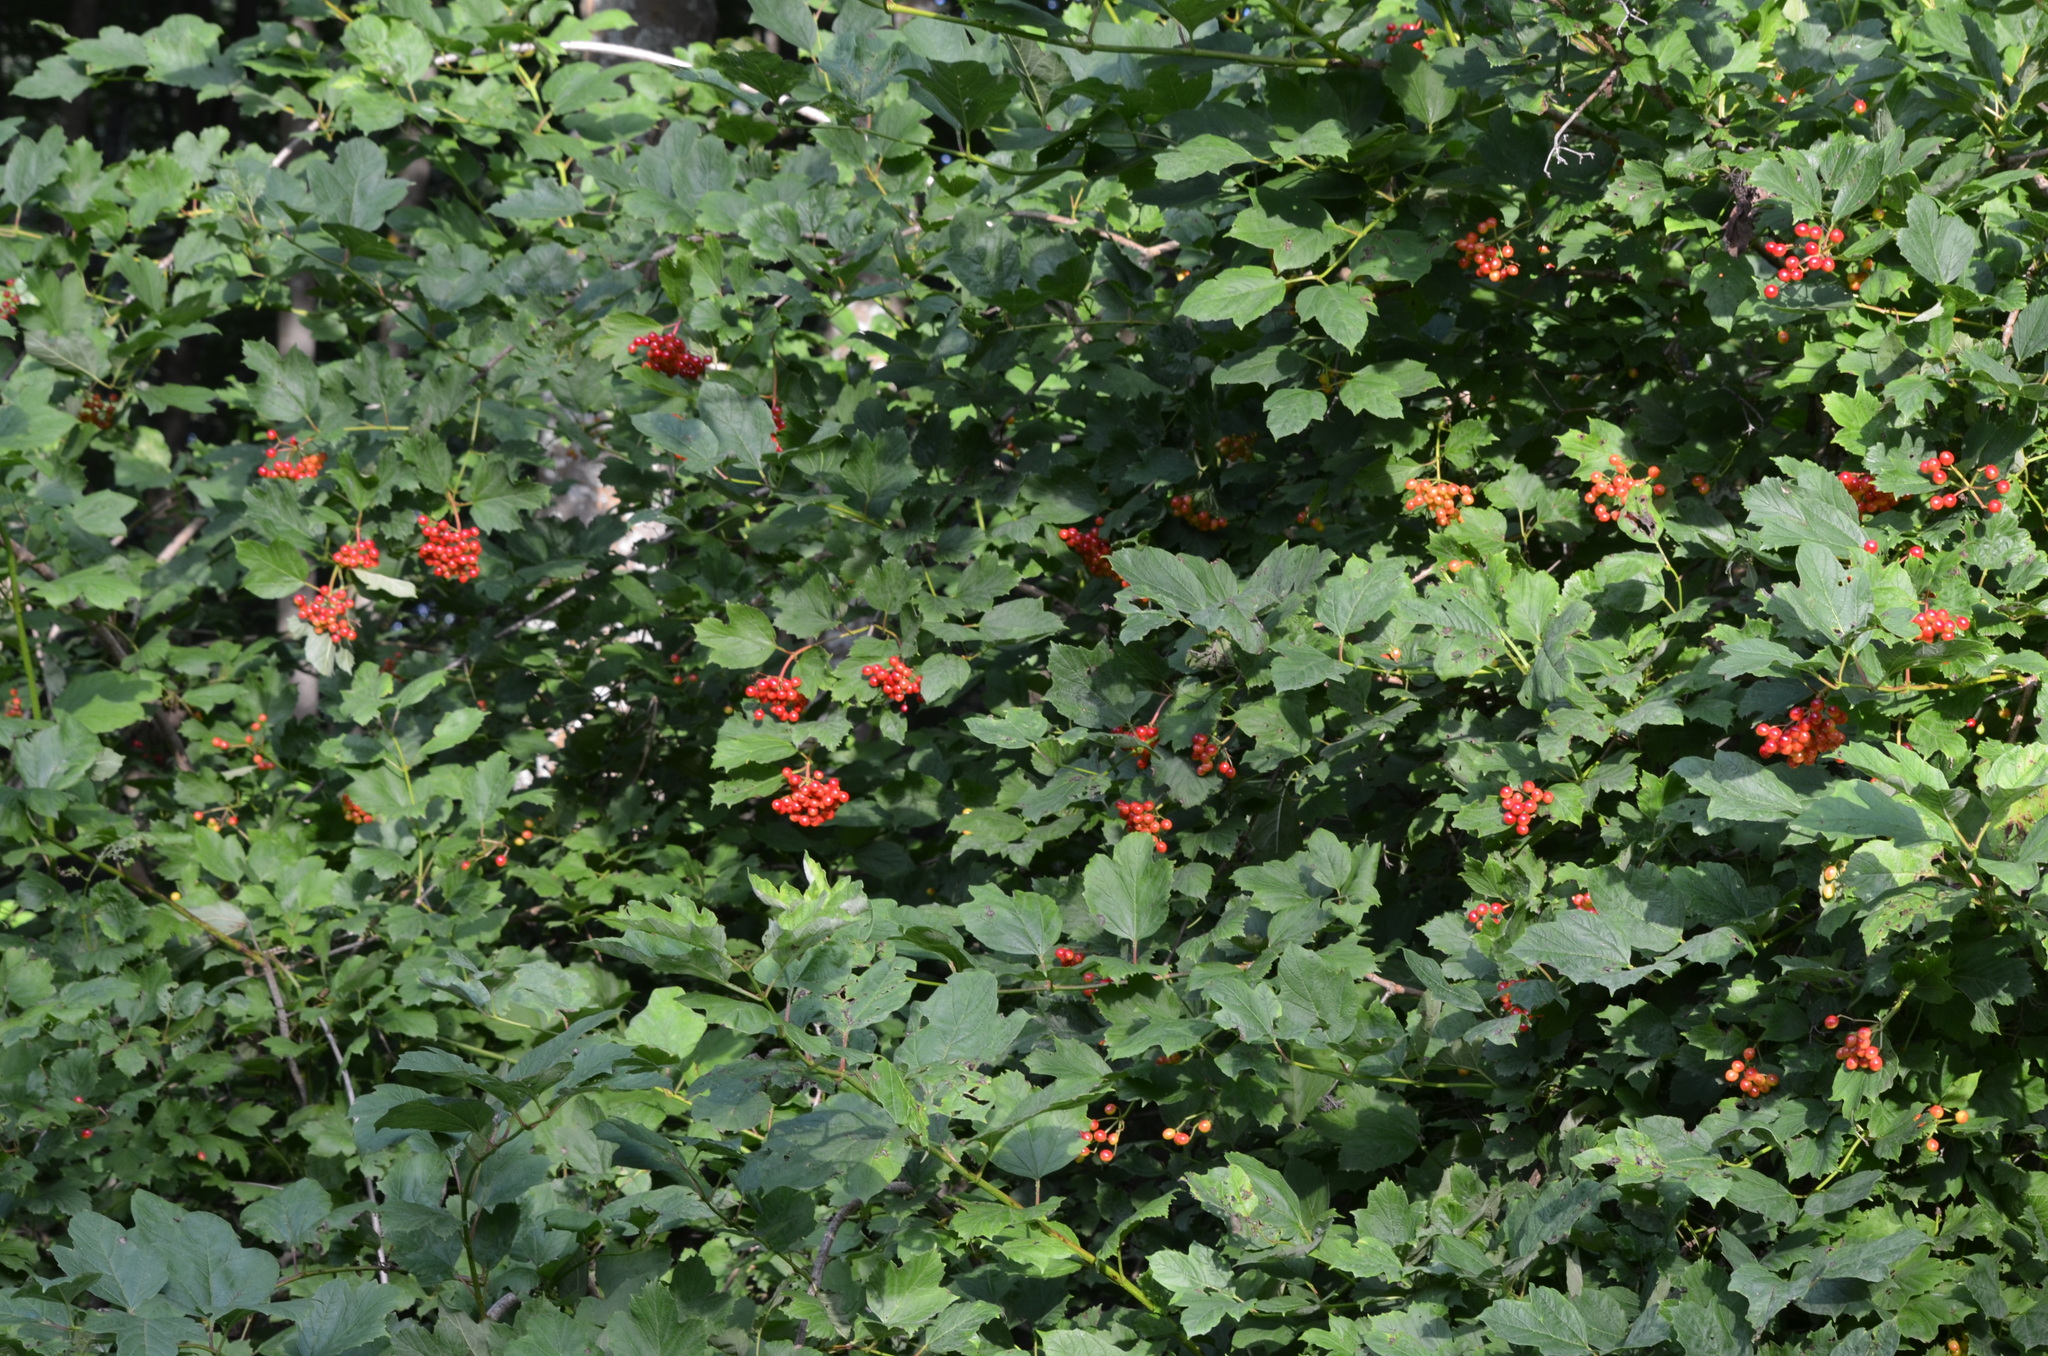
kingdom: Plantae
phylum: Tracheophyta
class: Magnoliopsida
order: Dipsacales
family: Viburnaceae
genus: Viburnum
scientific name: Viburnum opulus
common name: Guelder-rose
